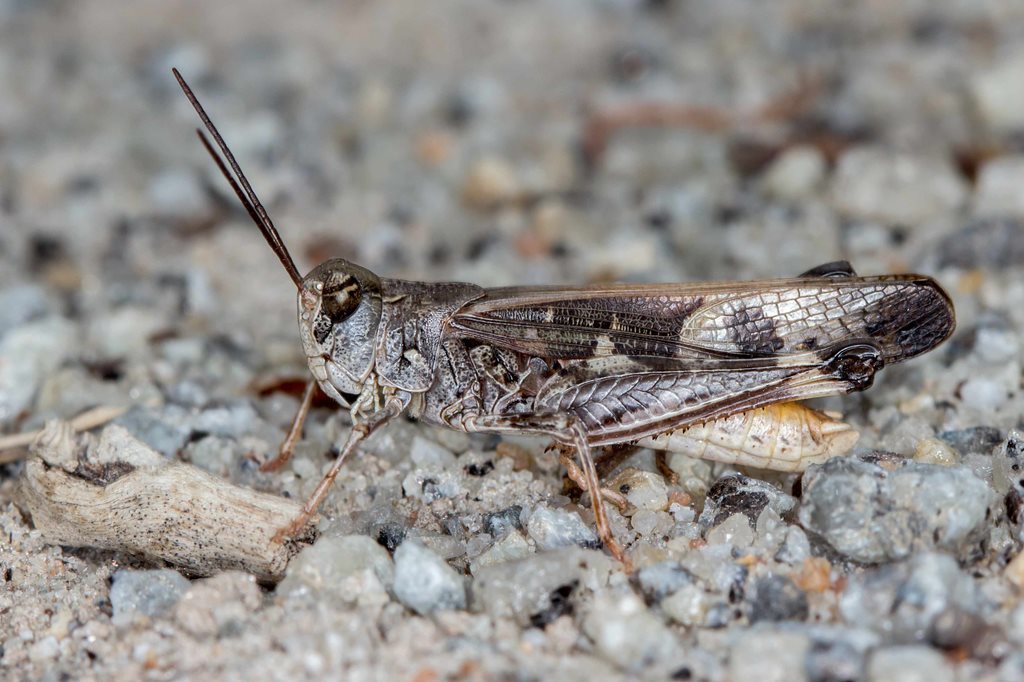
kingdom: Animalia
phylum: Arthropoda
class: Insecta
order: Orthoptera
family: Acrididae
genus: Oedaleus
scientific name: Oedaleus australis
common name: Eastern oedaleus
